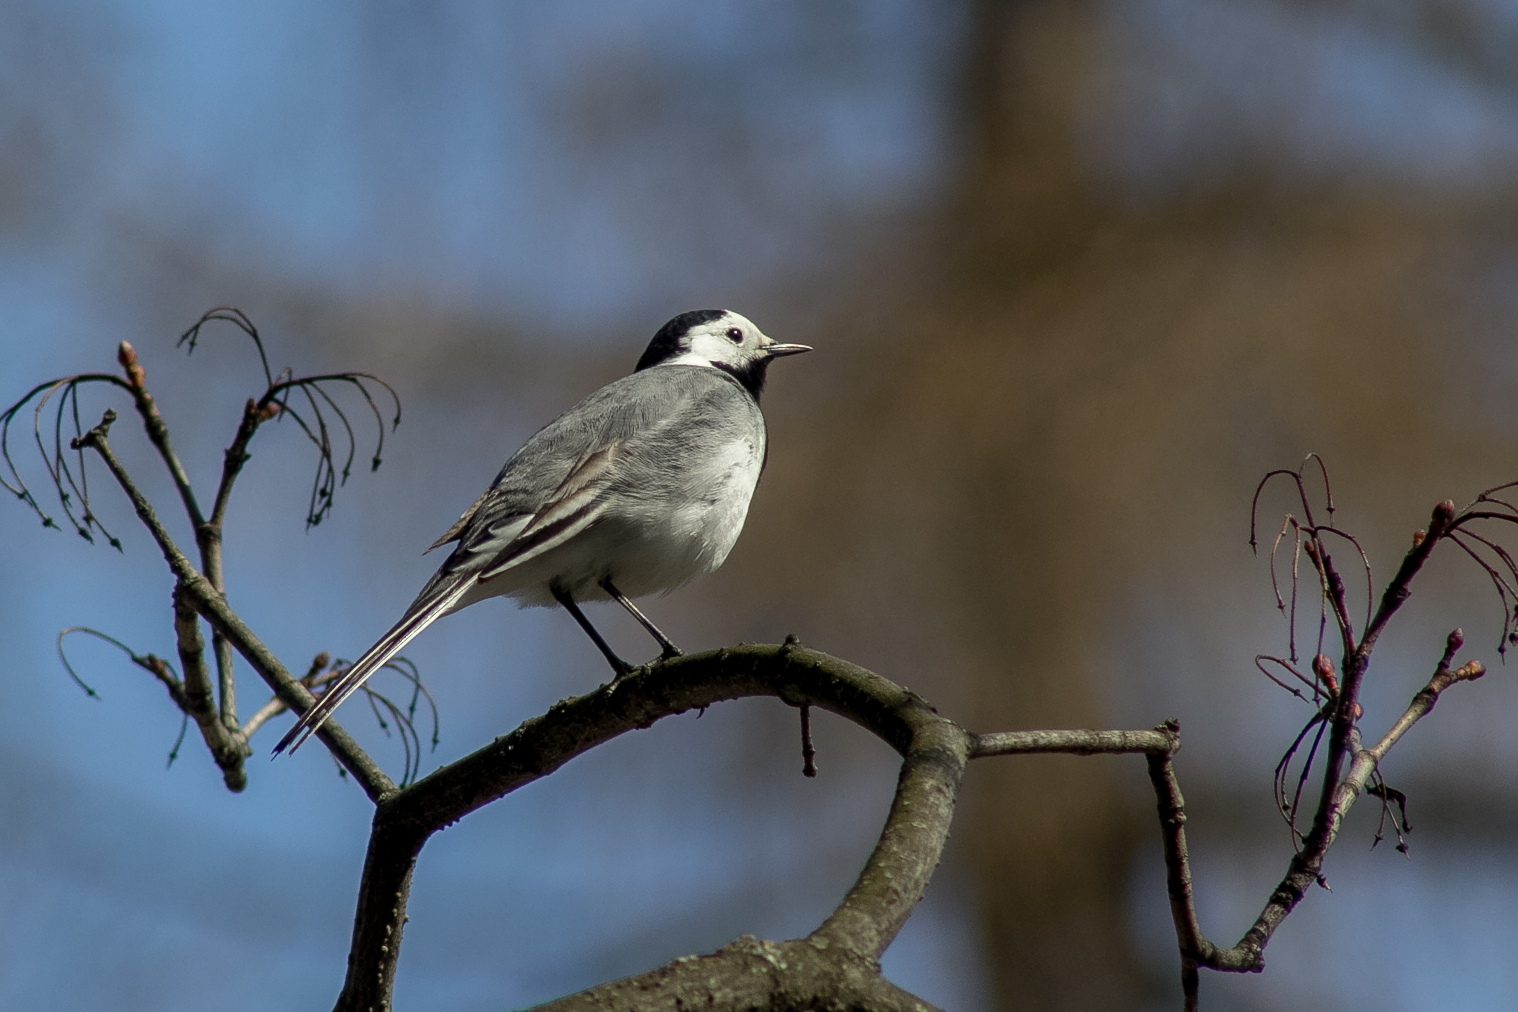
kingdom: Animalia
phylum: Chordata
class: Aves
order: Passeriformes
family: Motacillidae
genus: Motacilla
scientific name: Motacilla alba
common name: White wagtail
